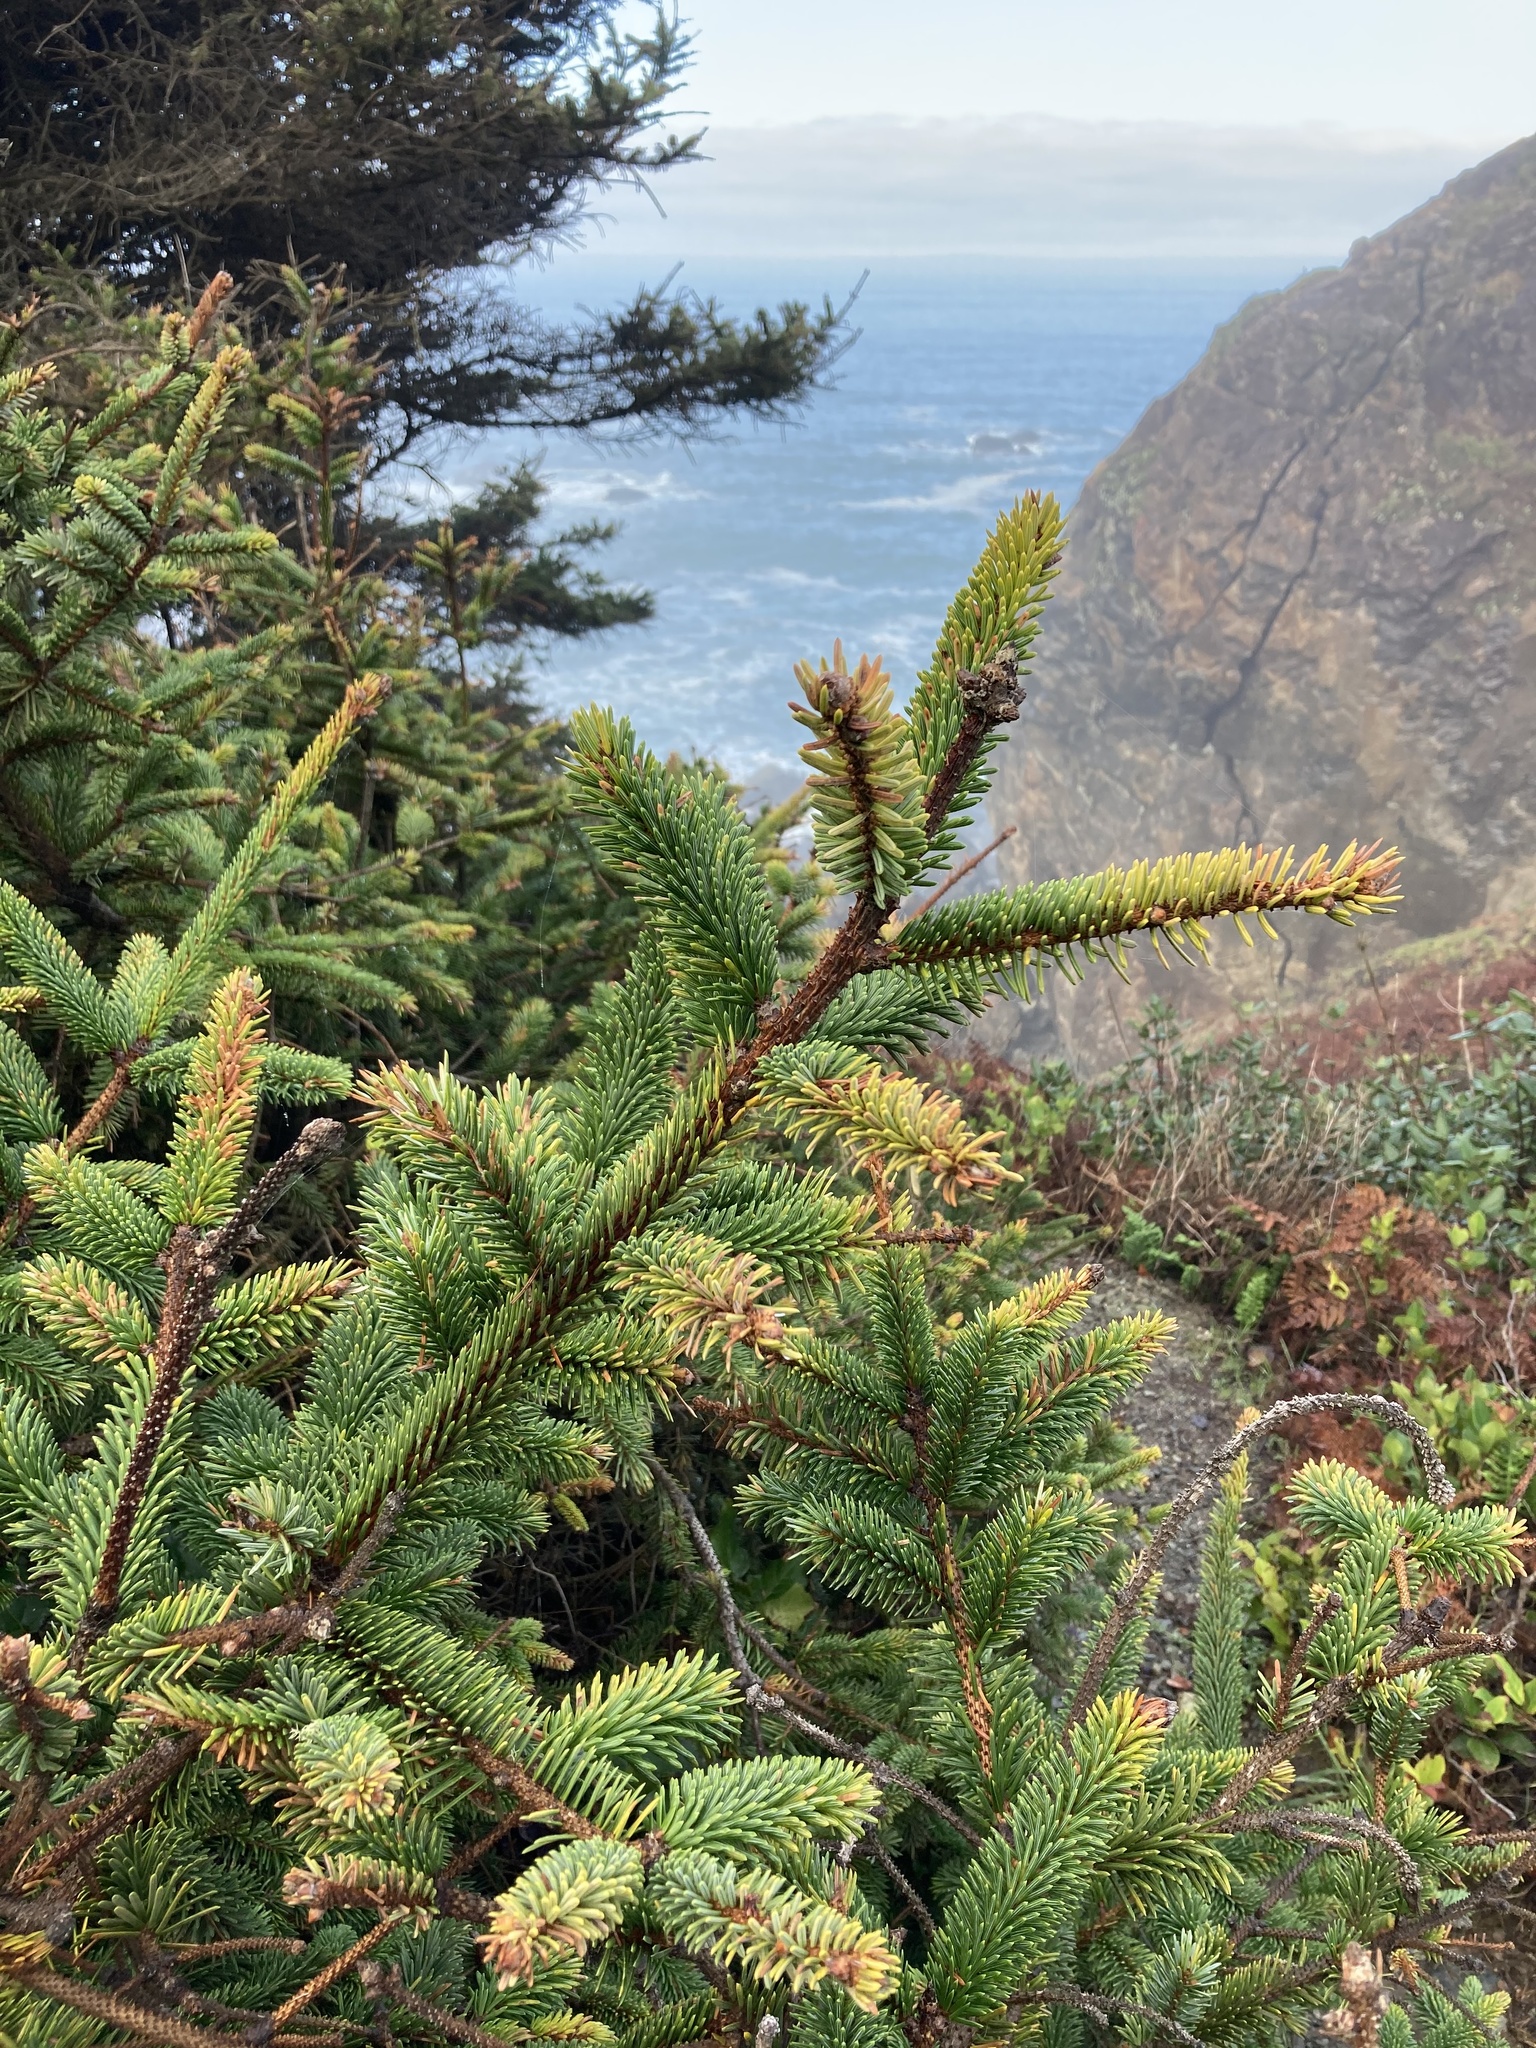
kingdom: Plantae
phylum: Tracheophyta
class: Pinopsida
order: Pinales
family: Pinaceae
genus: Picea
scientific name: Picea sitchensis
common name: Sitka spruce
